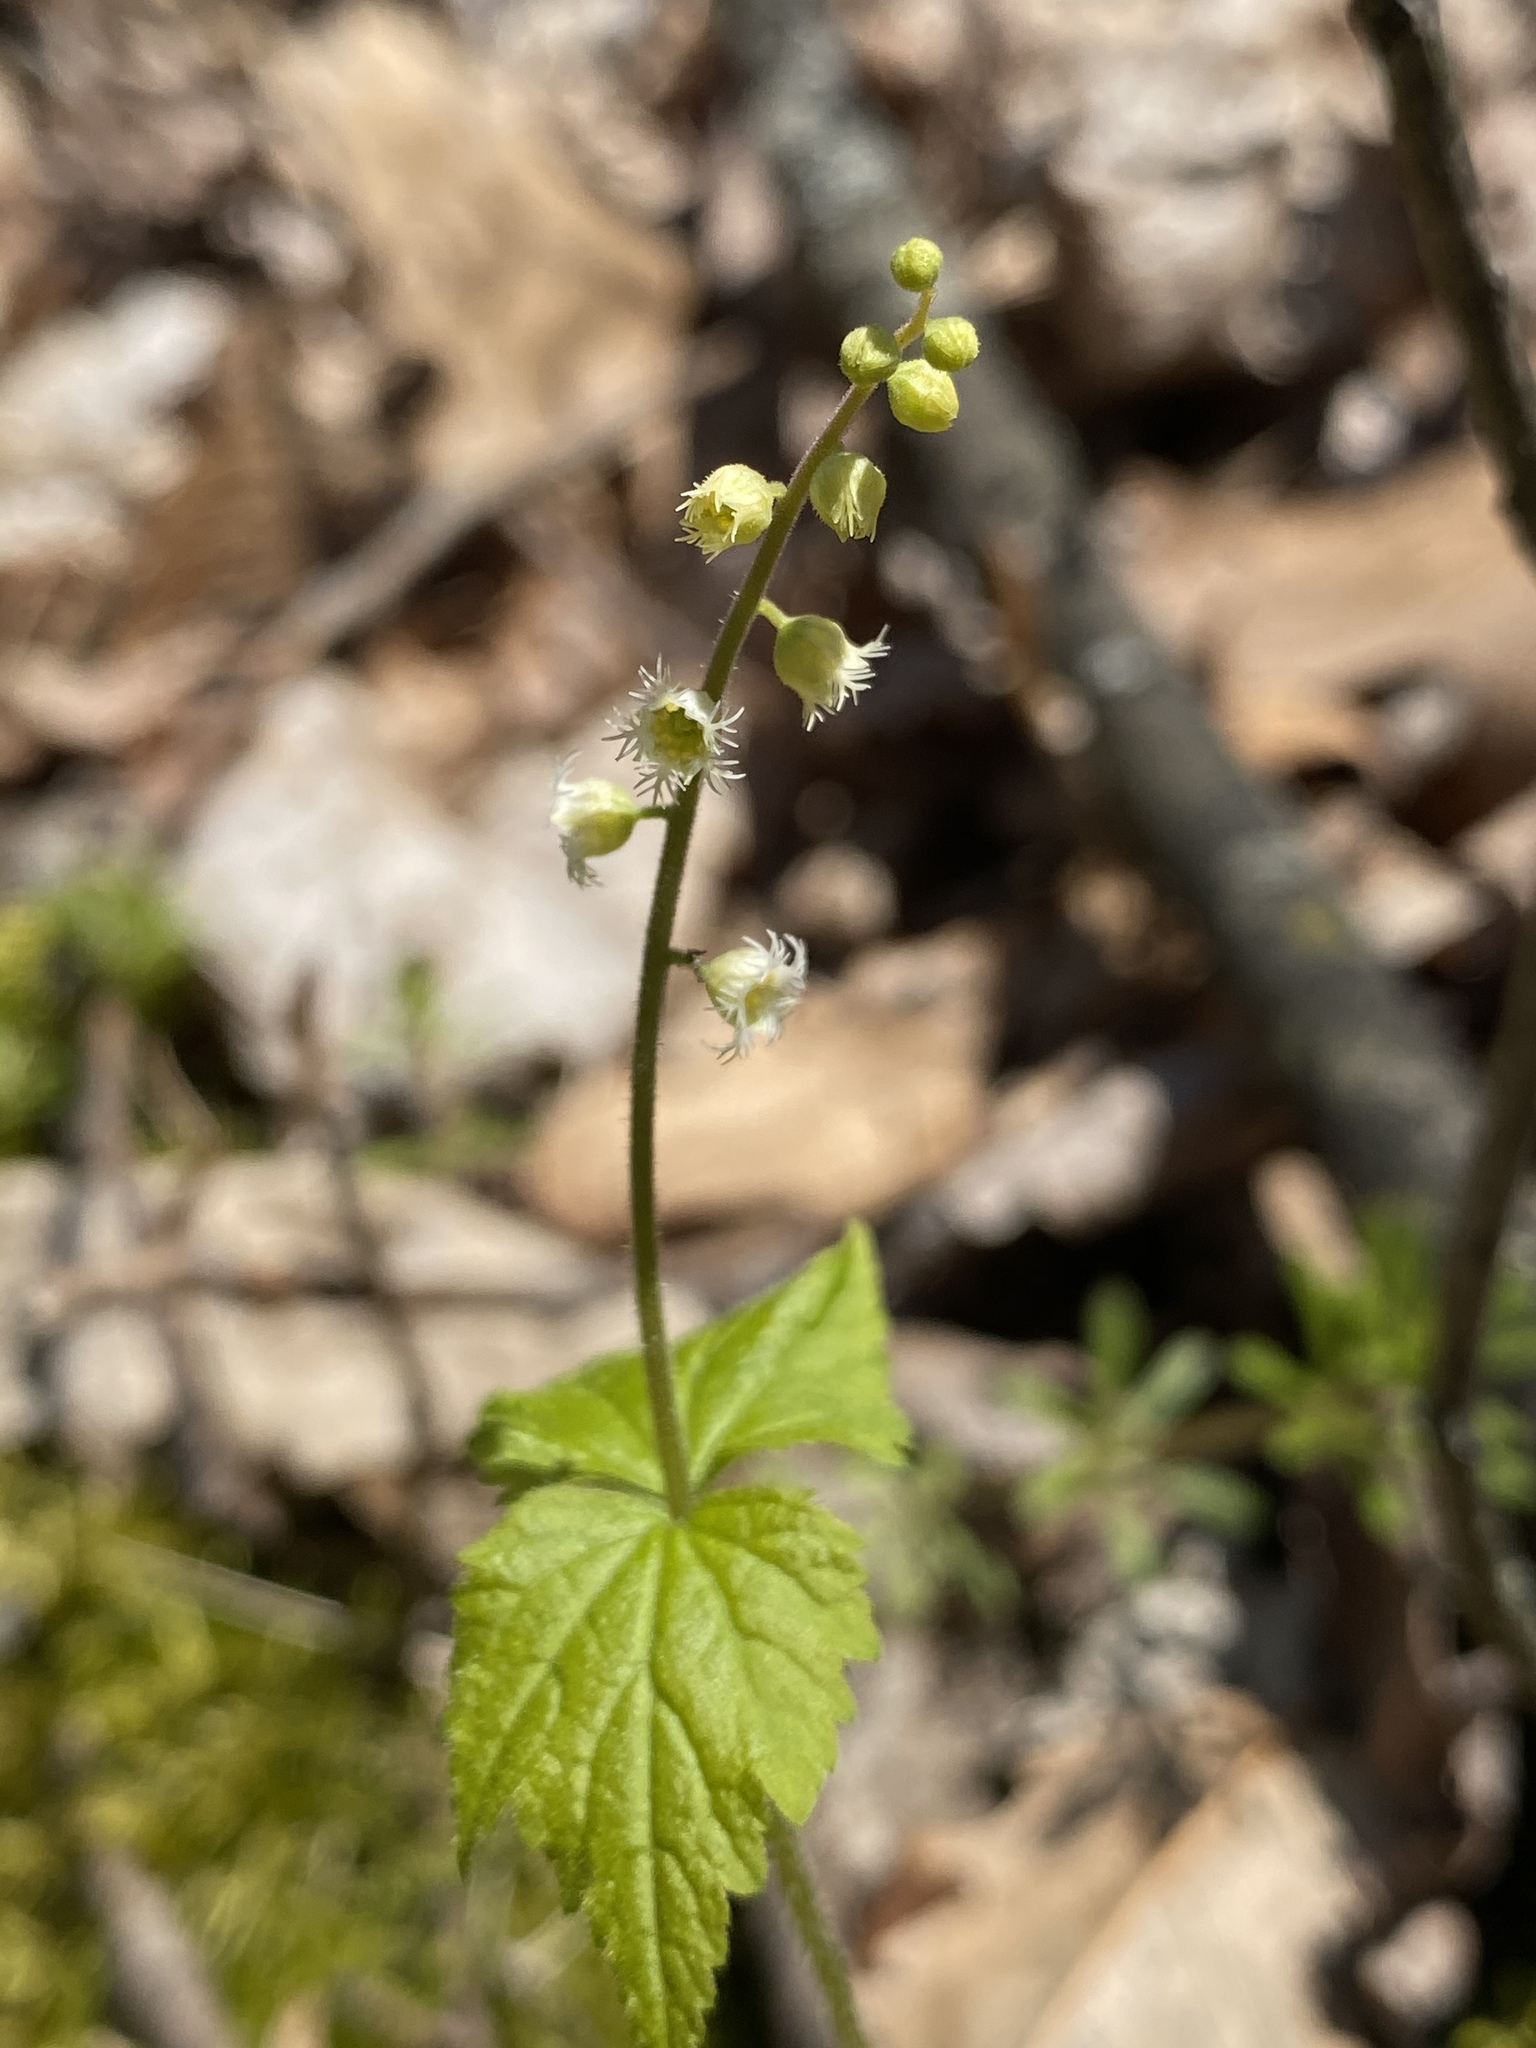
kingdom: Plantae
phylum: Tracheophyta
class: Magnoliopsida
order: Saxifragales
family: Saxifragaceae
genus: Mitella
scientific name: Mitella diphylla
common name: Coolwort
